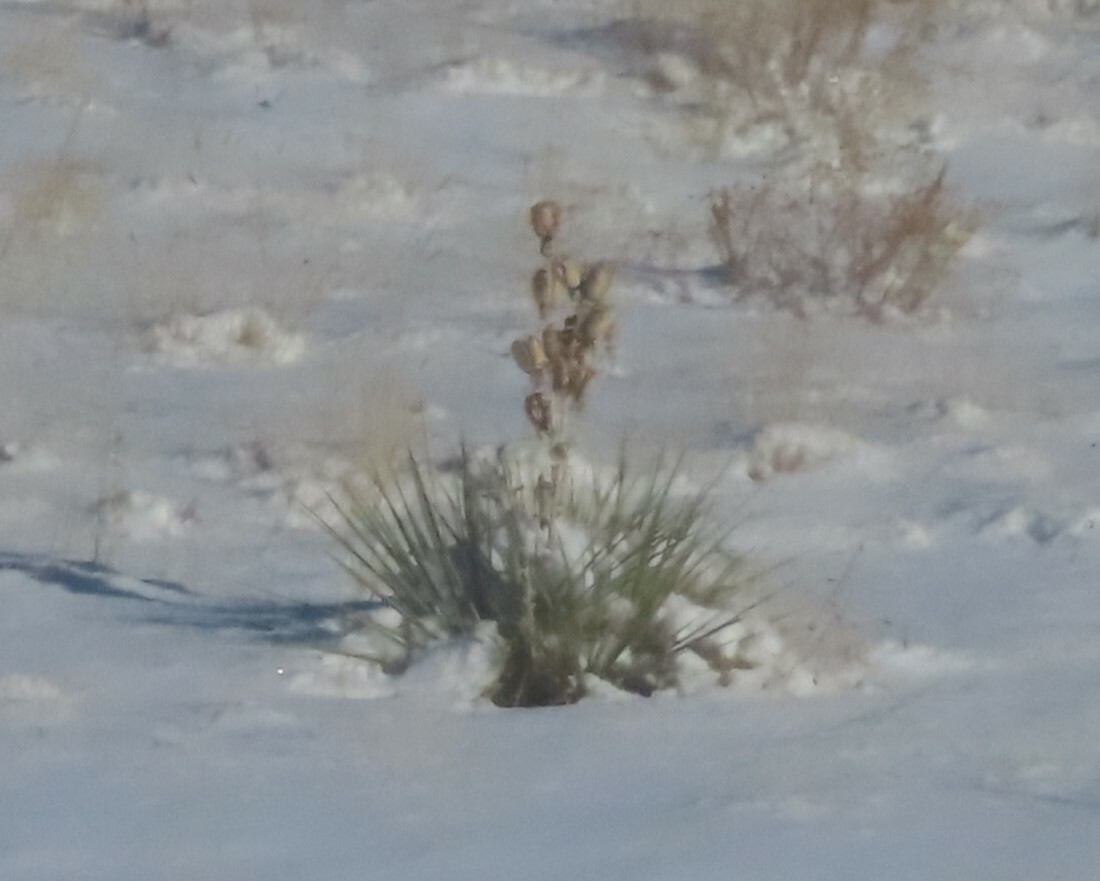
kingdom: Plantae
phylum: Tracheophyta
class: Liliopsida
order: Asparagales
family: Asparagaceae
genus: Yucca
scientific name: Yucca glauca
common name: Great plains yucca
